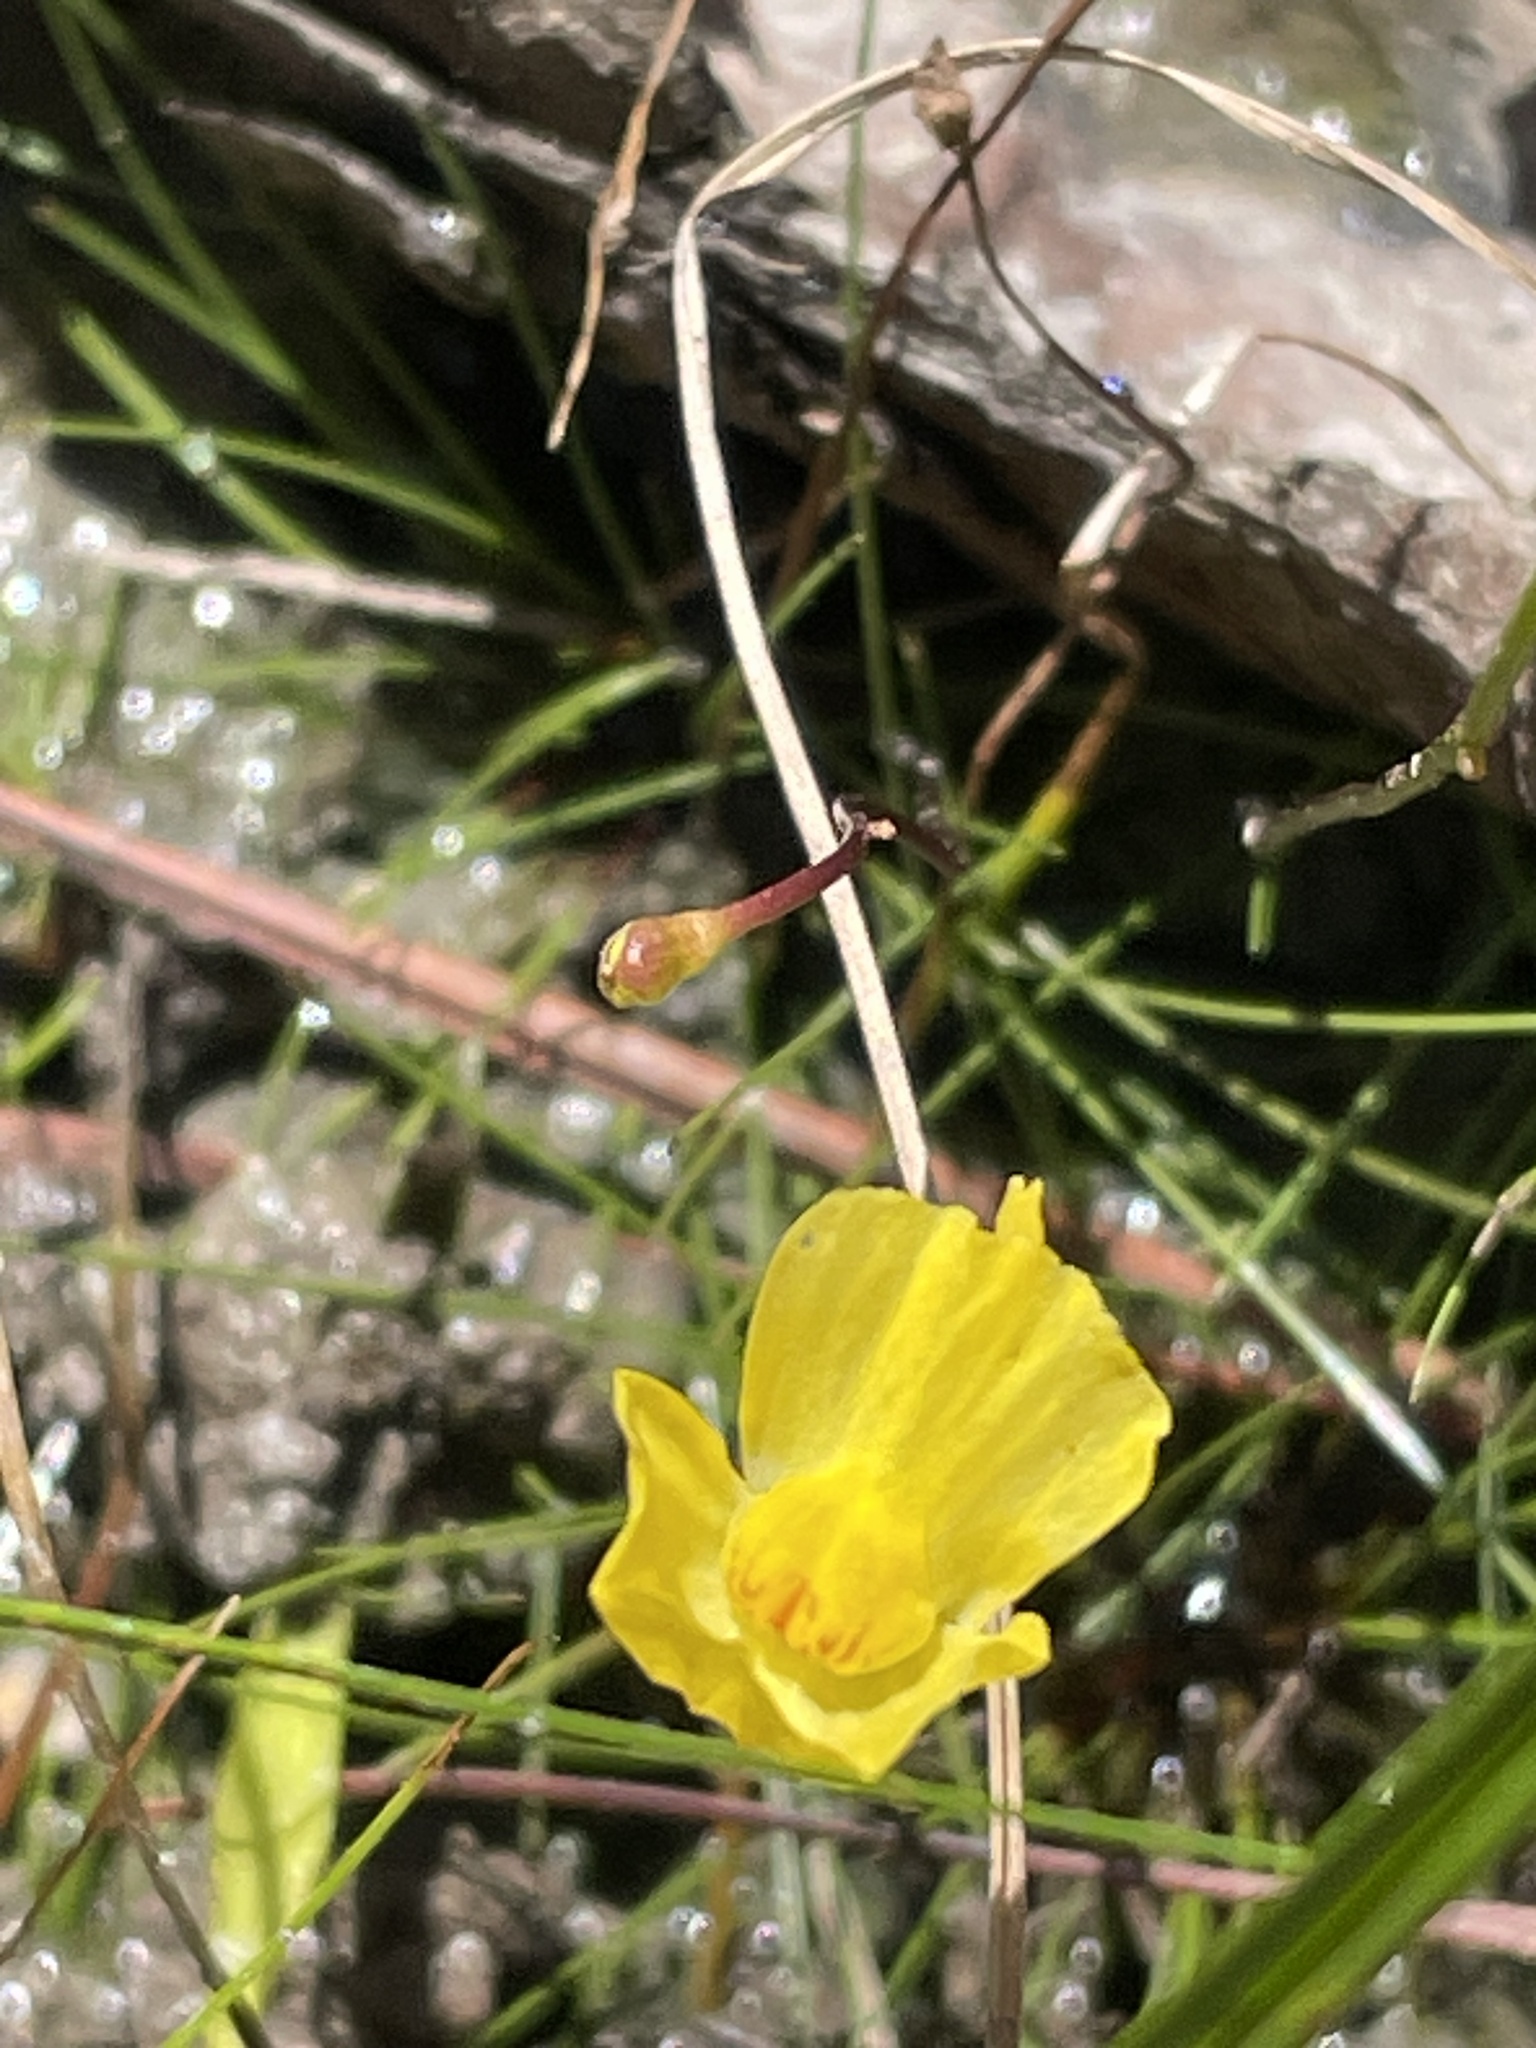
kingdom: Plantae
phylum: Tracheophyta
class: Magnoliopsida
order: Lamiales
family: Lentibulariaceae
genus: Utricularia
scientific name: Utricularia gibba
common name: Humped bladderwort
